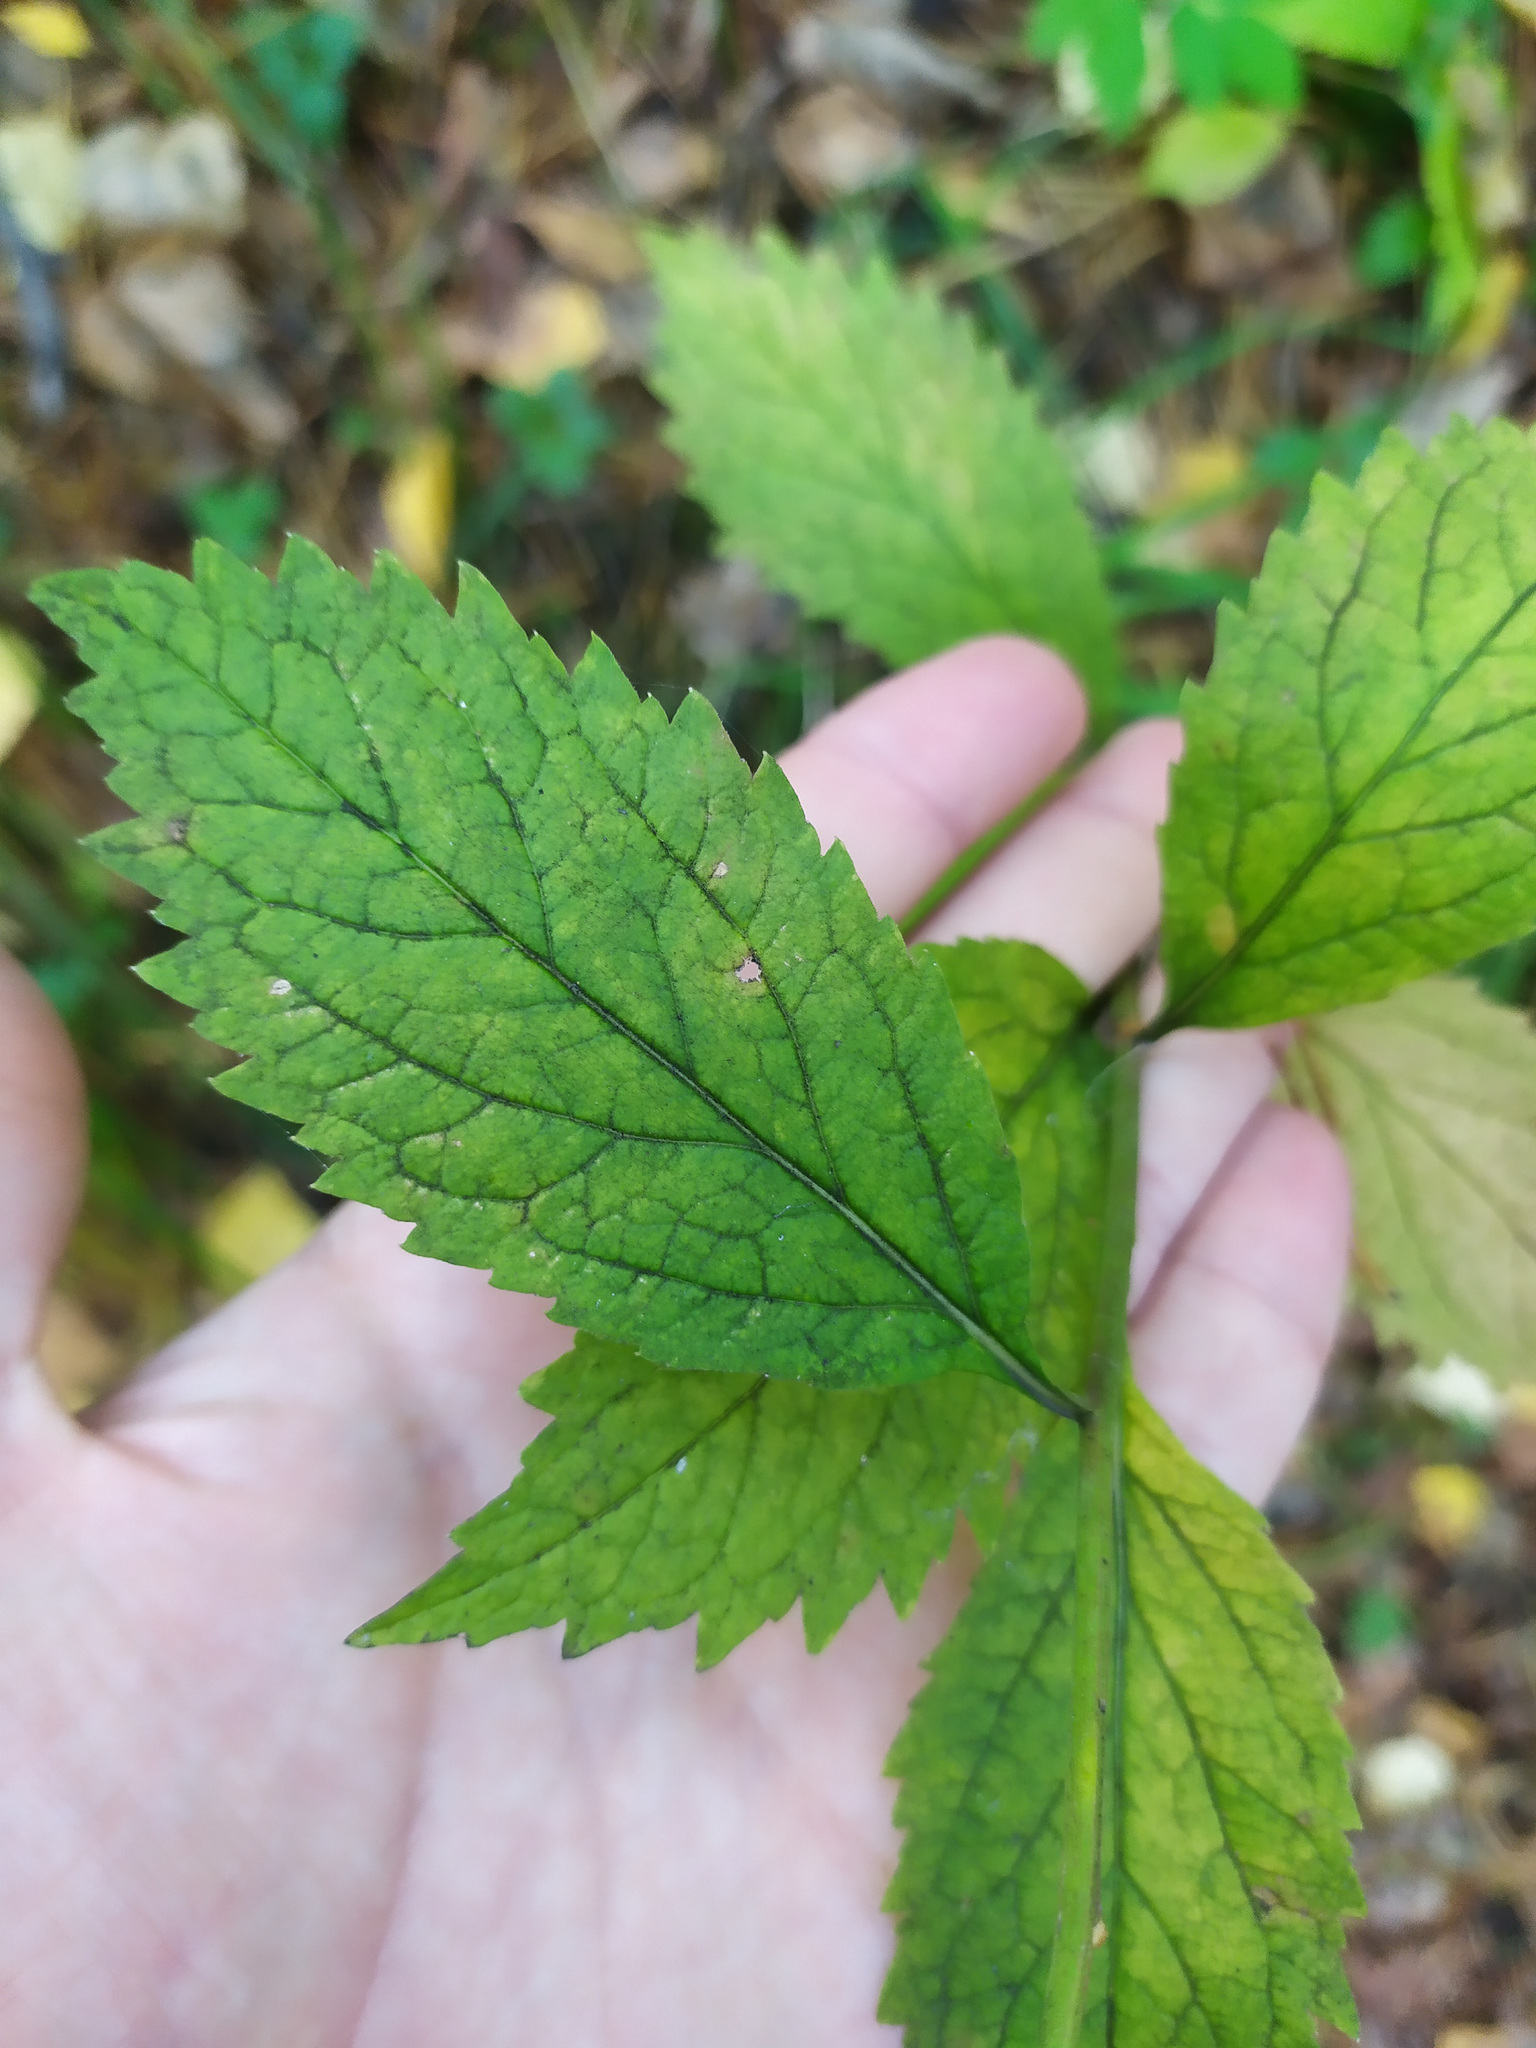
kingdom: Plantae
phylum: Tracheophyta
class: Magnoliopsida
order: Asterales
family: Campanulaceae
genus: Adenophora
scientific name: Adenophora liliifolia
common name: Lilyleaf ladybells
